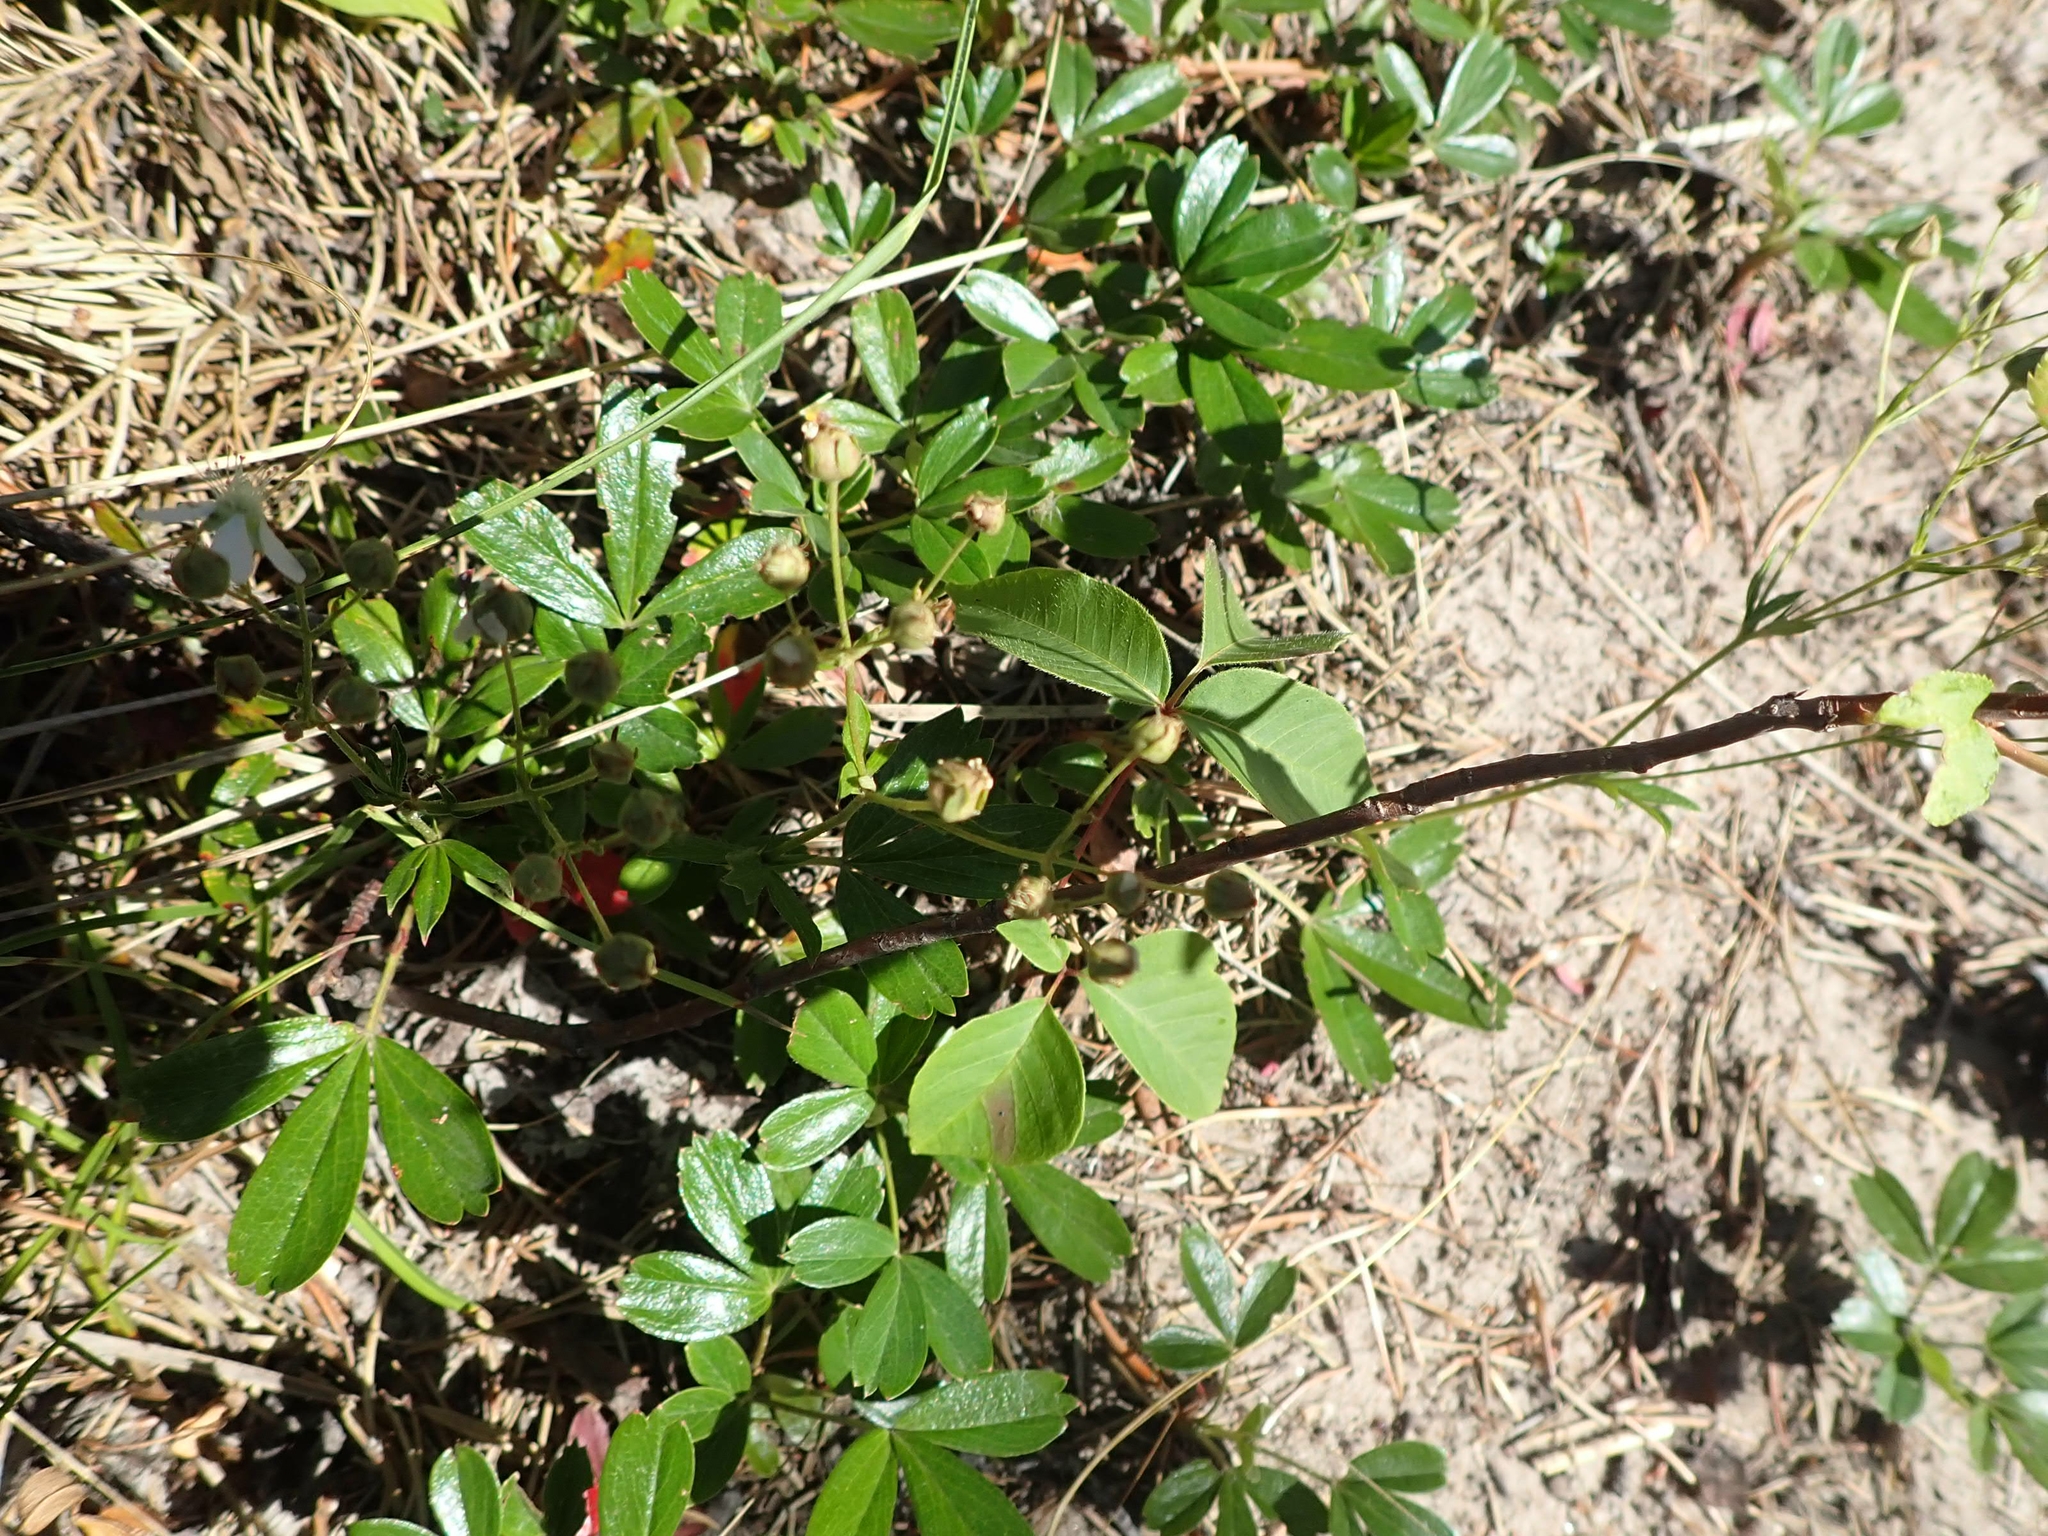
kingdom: Plantae
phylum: Tracheophyta
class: Magnoliopsida
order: Rosales
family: Rosaceae
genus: Sibbaldia
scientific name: Sibbaldia tridentata
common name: Three-toothed cinquefoil
